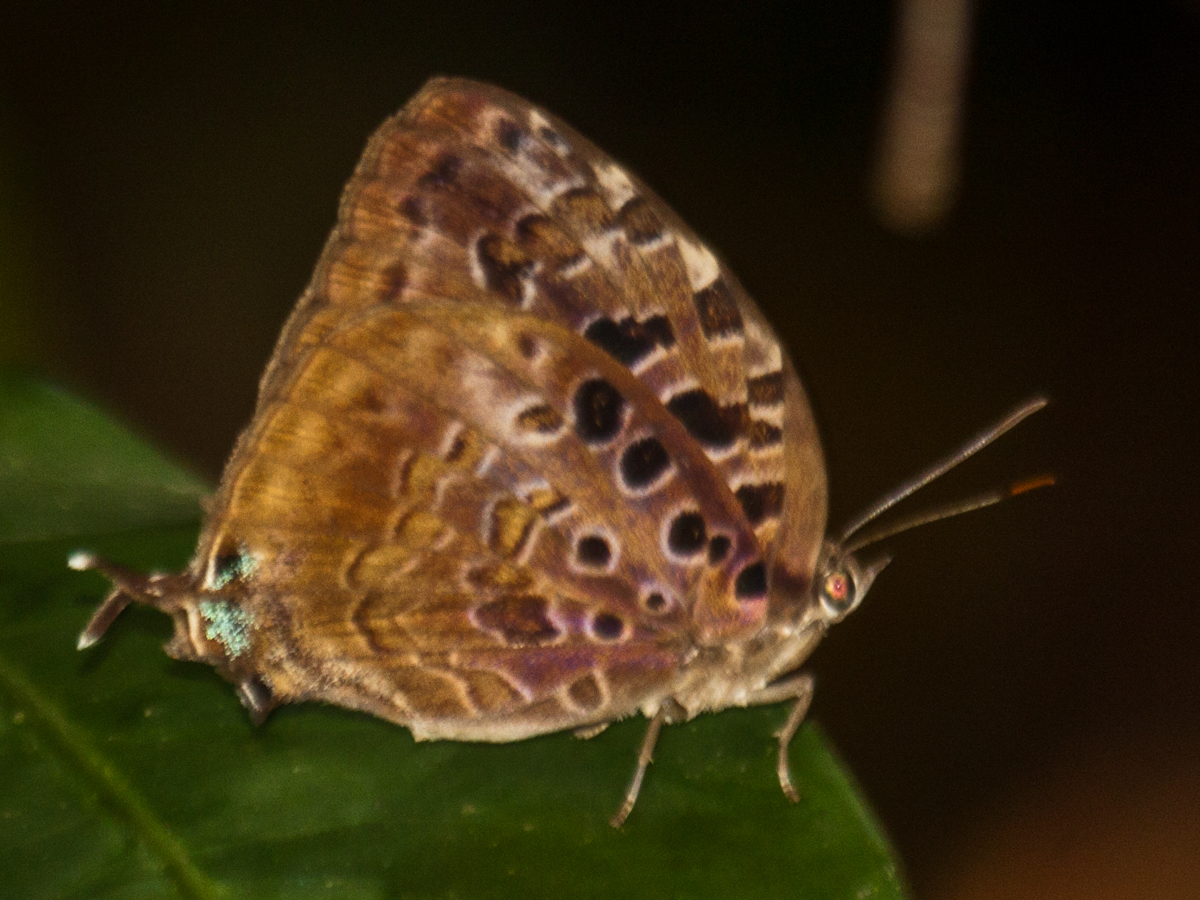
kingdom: Animalia
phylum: Arthropoda
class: Insecta
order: Lepidoptera
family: Lycaenidae
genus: Arhopala
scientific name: Arhopala anthelus
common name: Bushblue
